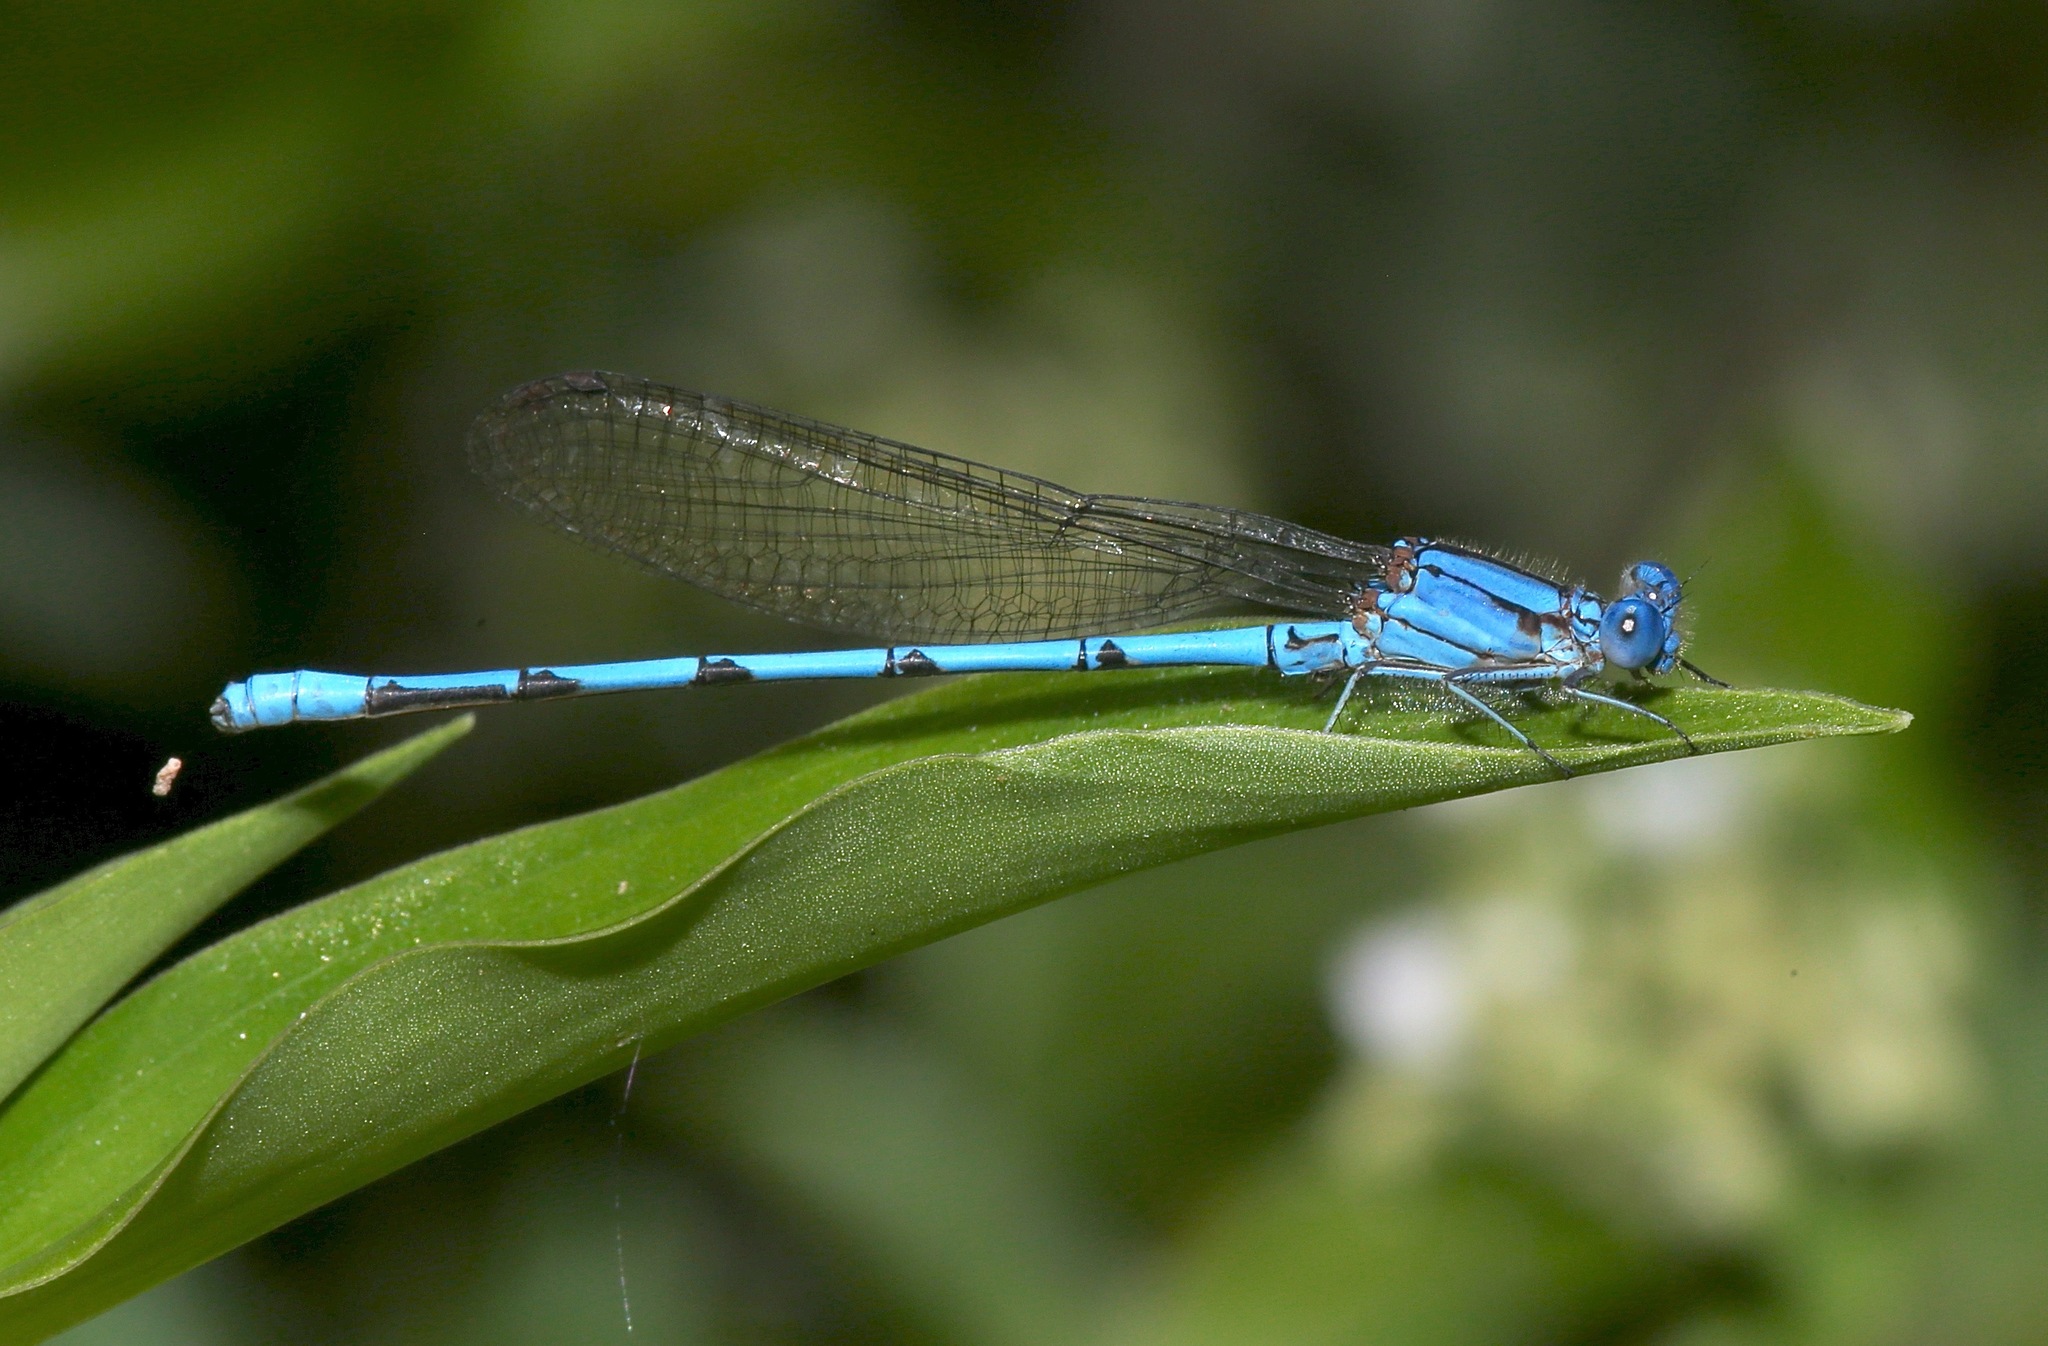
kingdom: Animalia
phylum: Arthropoda
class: Insecta
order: Odonata
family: Coenagrionidae
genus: Argia
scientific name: Argia anceps
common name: Cerulean dancer
